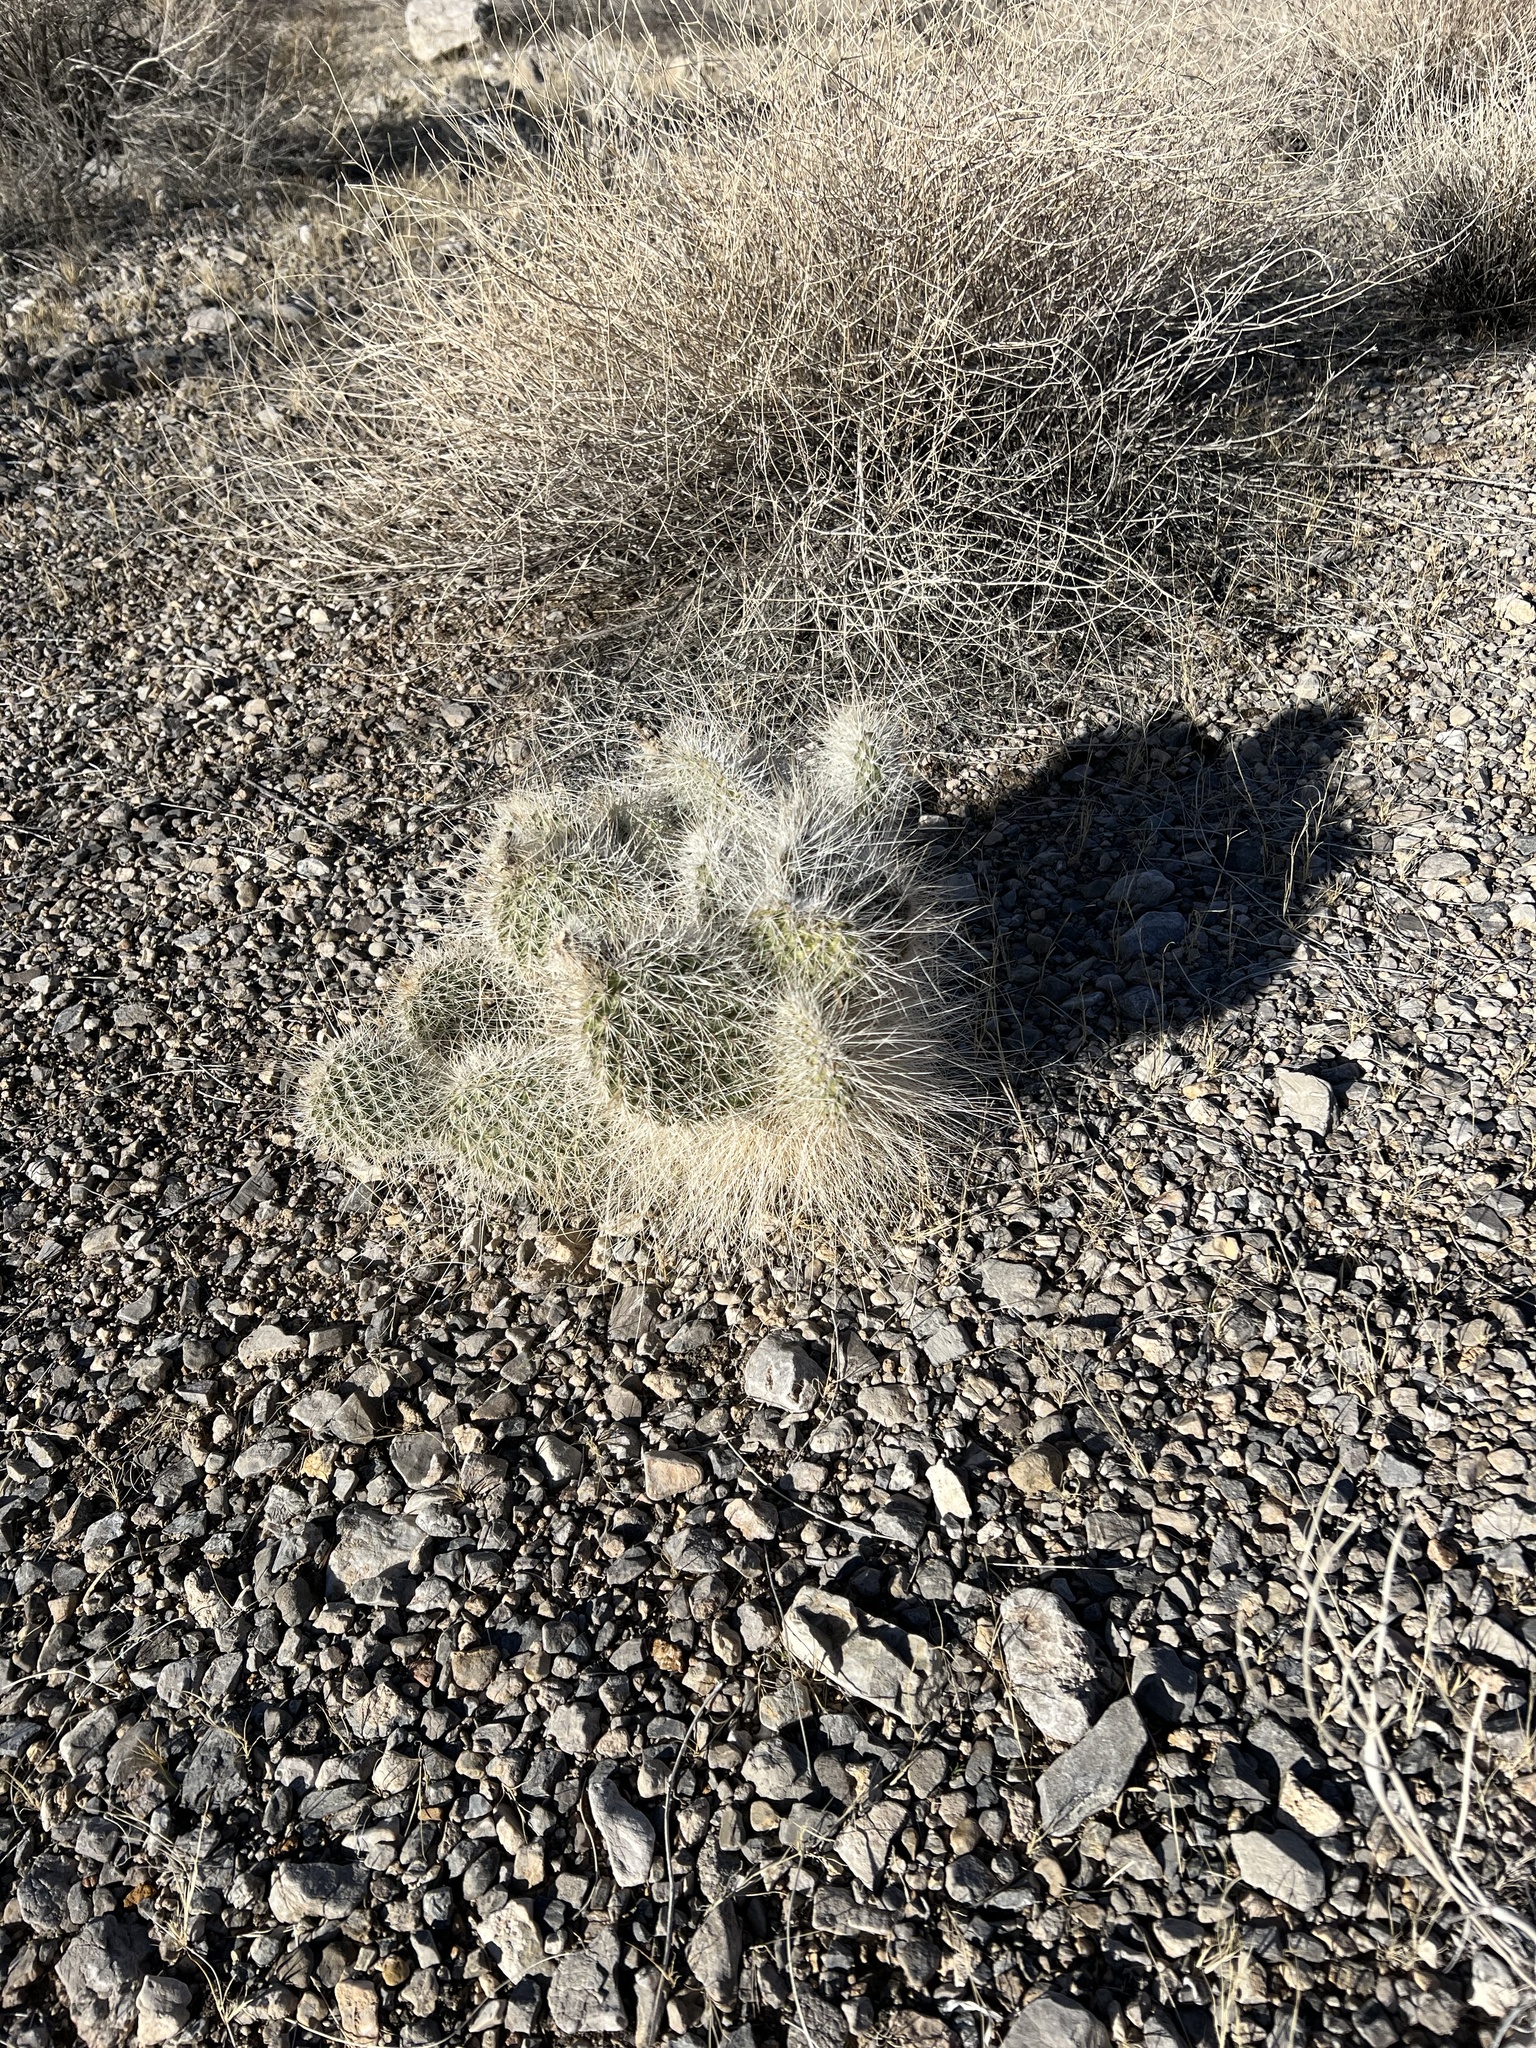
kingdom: Plantae
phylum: Tracheophyta
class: Magnoliopsida
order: Caryophyllales
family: Cactaceae
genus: Opuntia
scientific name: Opuntia polyacantha
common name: Plains prickly-pear
